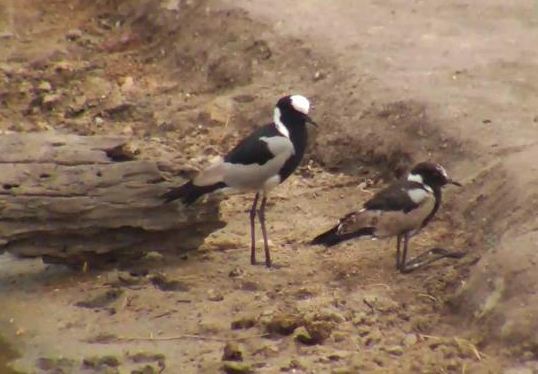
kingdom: Animalia
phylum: Chordata
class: Aves
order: Charadriiformes
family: Charadriidae
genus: Vanellus
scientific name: Vanellus armatus
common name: Blacksmith lapwing
